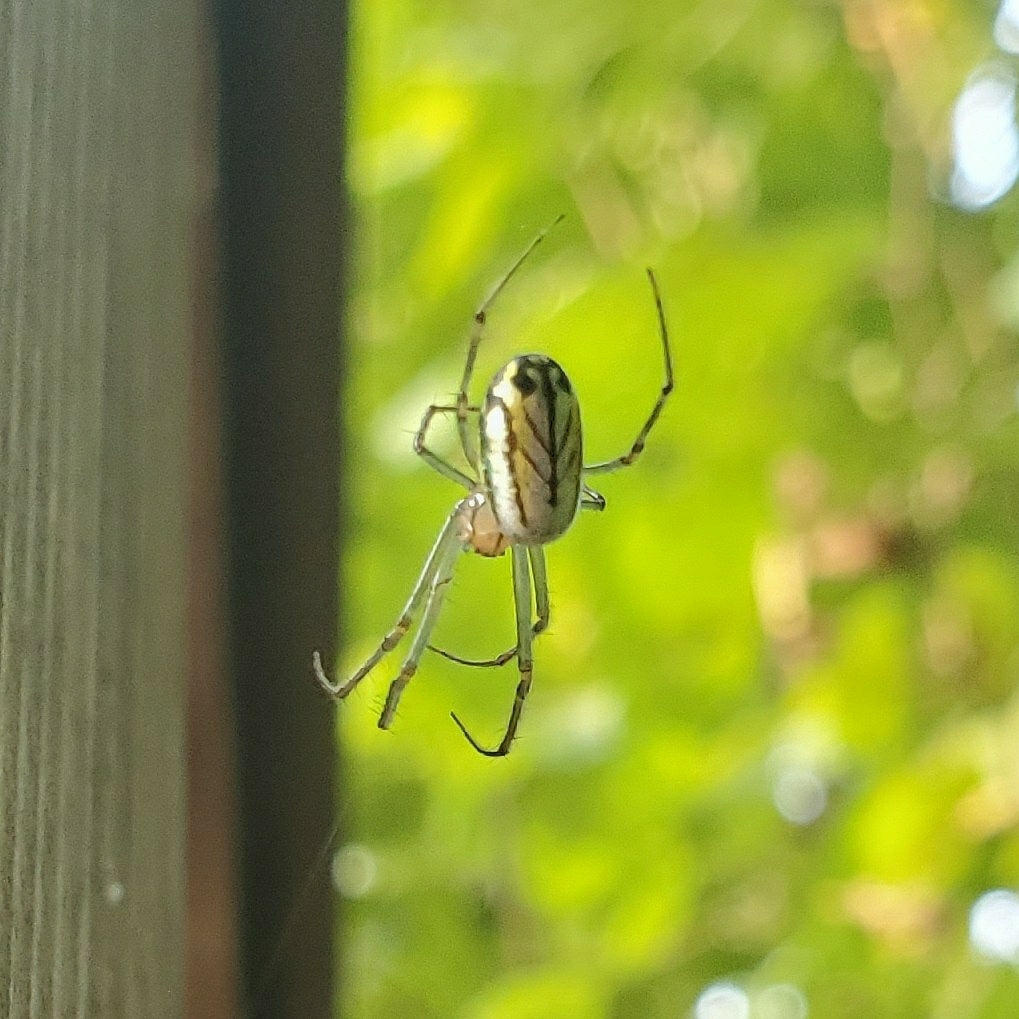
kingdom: Animalia
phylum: Arthropoda
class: Arachnida
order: Araneae
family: Tetragnathidae
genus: Leucauge
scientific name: Leucauge venusta
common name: Longjawed orb weavers
